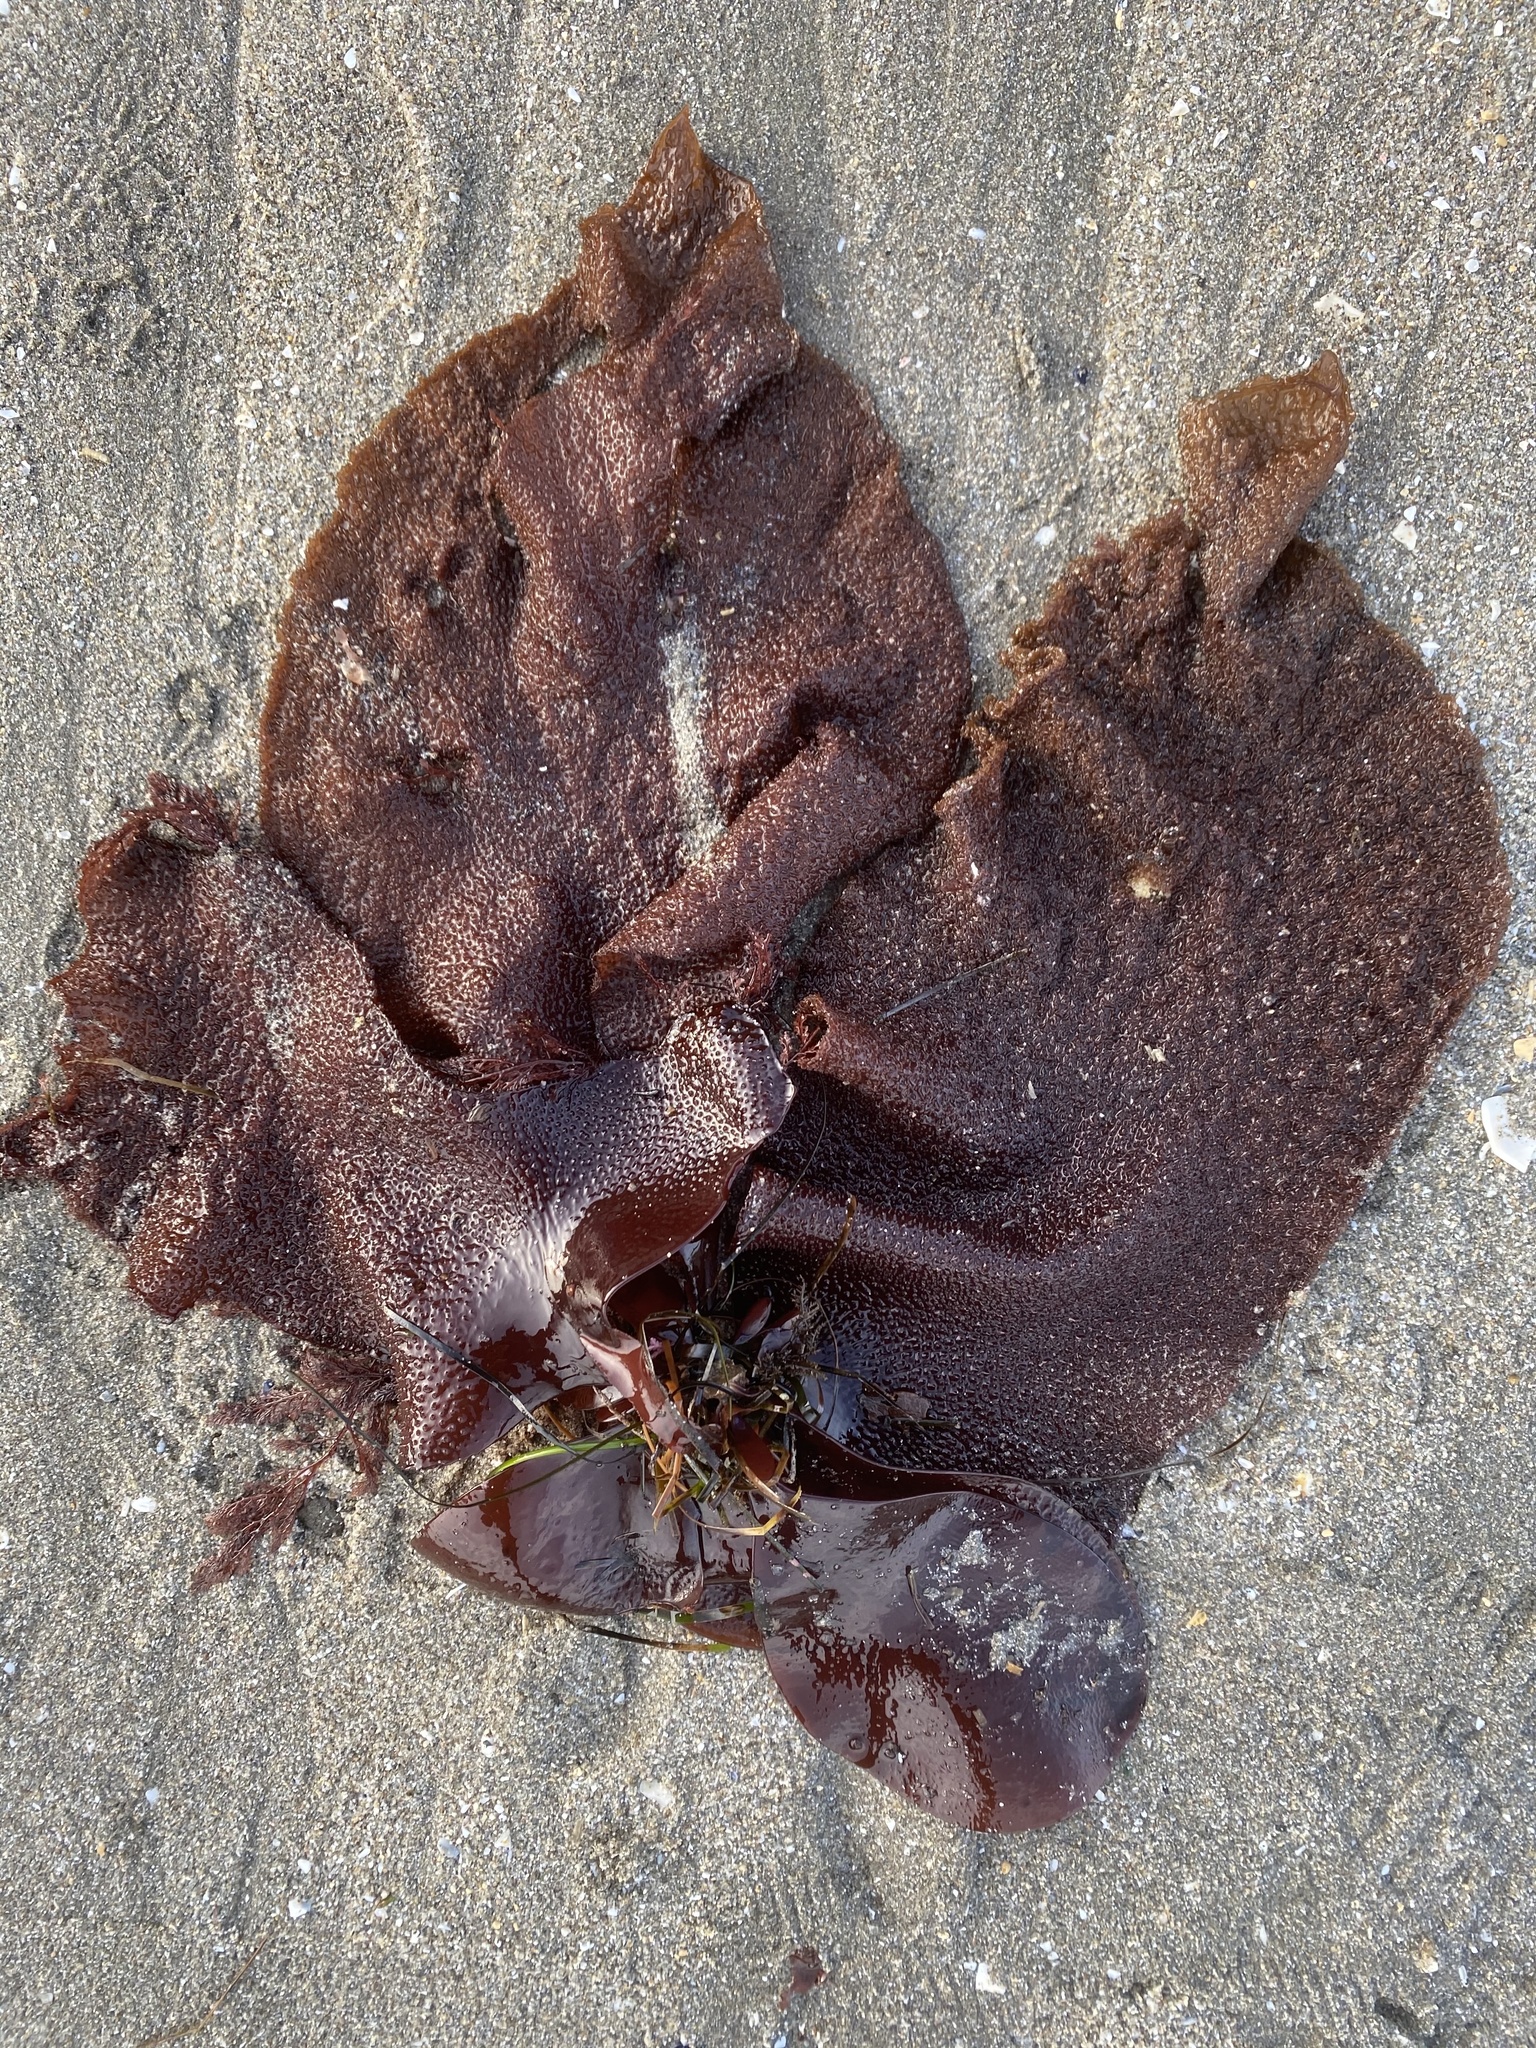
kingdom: Plantae
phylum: Rhodophyta
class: Florideophyceae
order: Gigartinales
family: Gigartinaceae
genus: Chondracanthus
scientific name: Chondracanthus exasperatus
